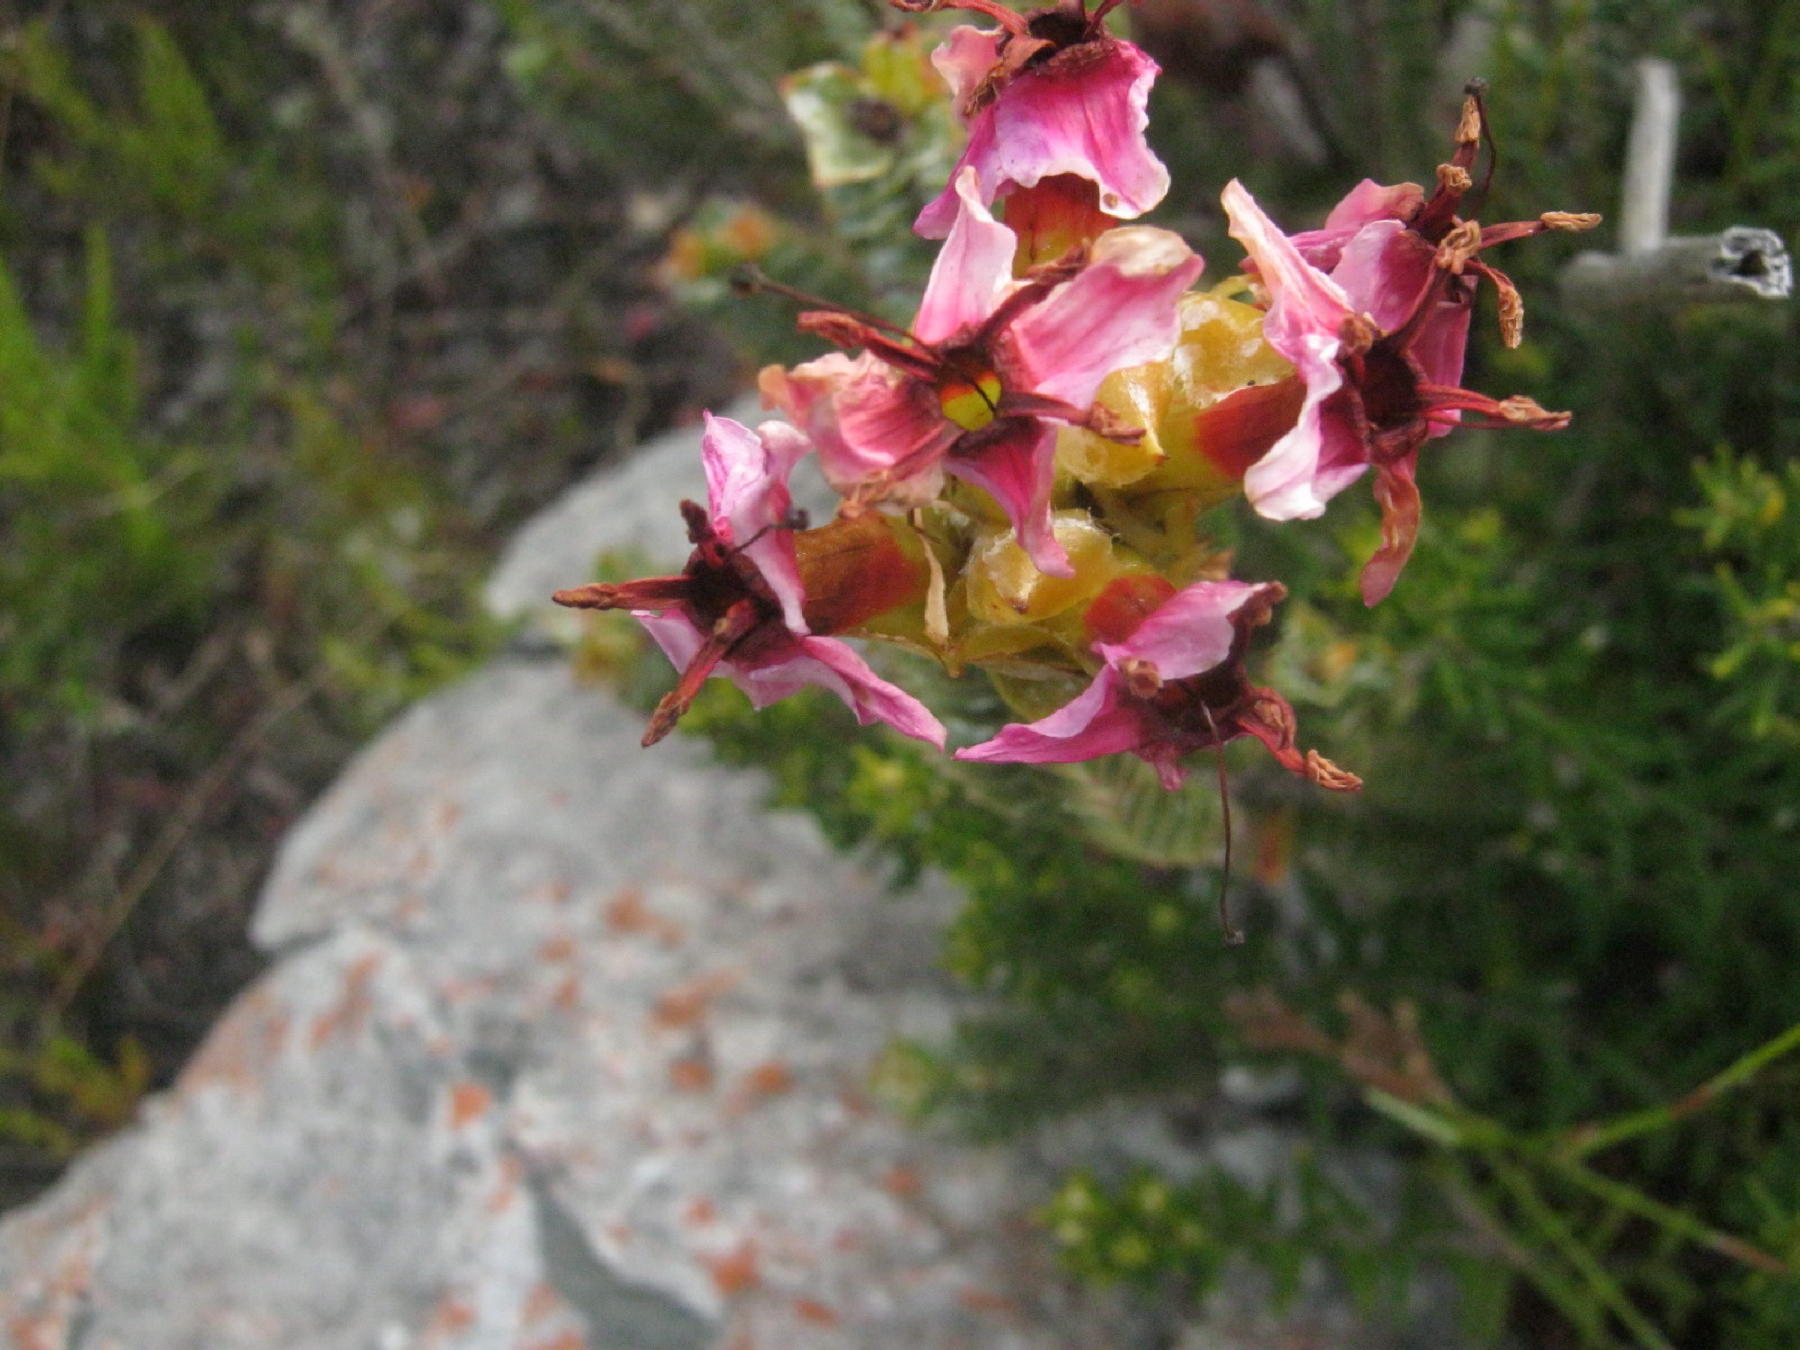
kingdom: Plantae
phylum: Tracheophyta
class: Magnoliopsida
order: Myrtales
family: Penaeaceae
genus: Saltera
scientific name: Saltera sarcocolla
